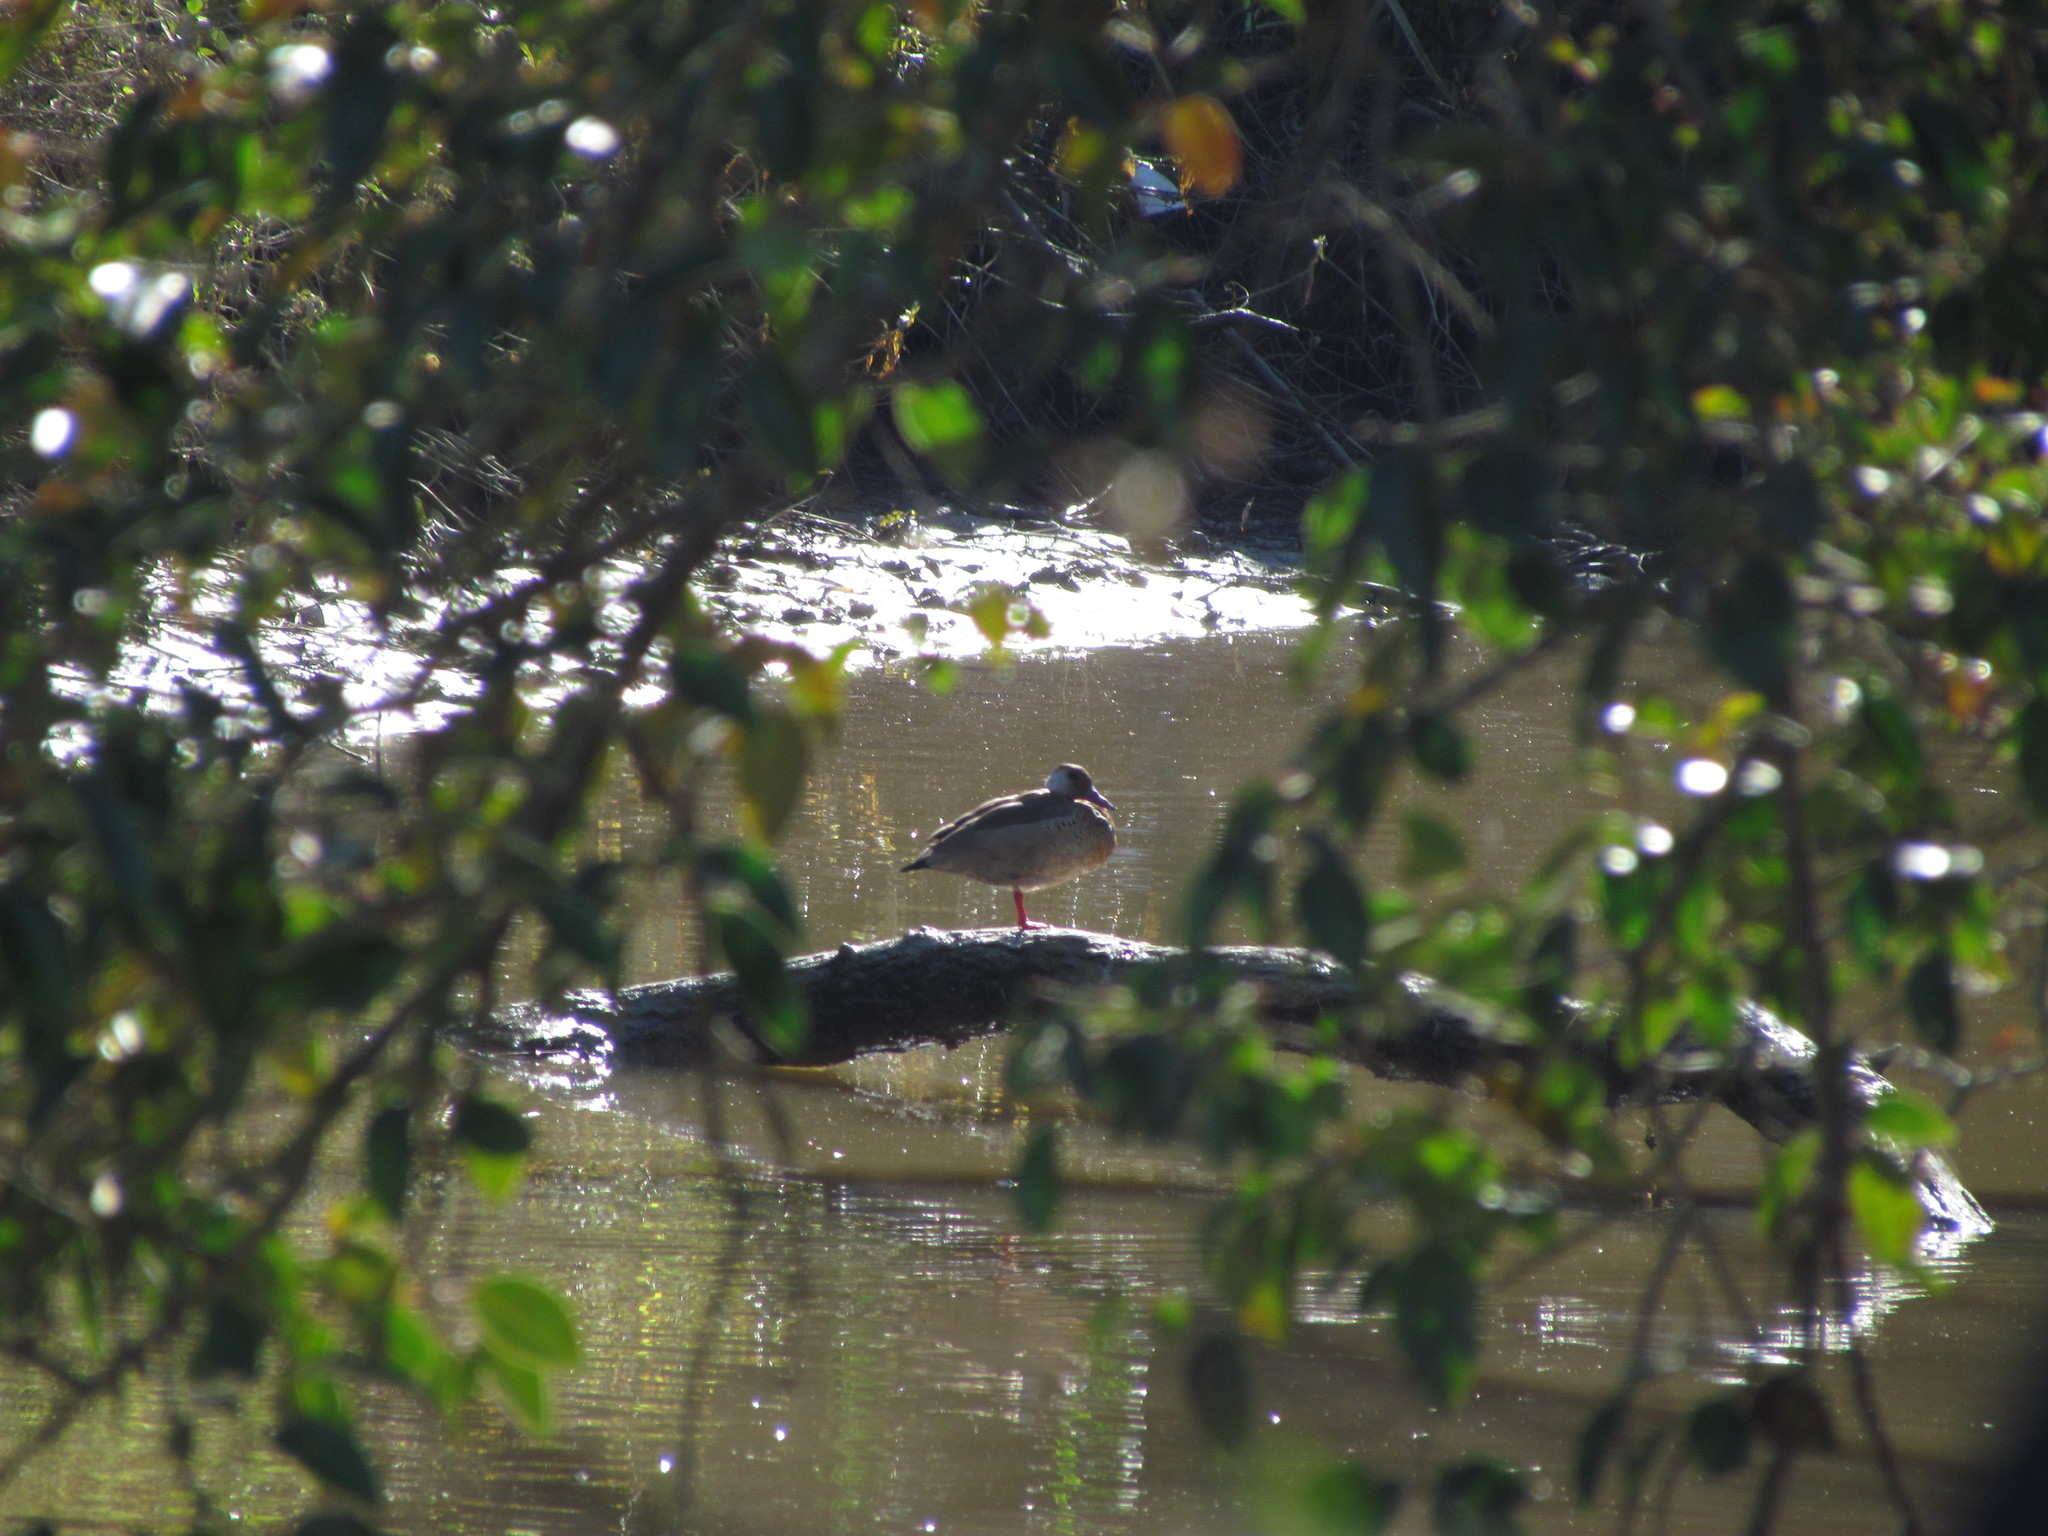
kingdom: Animalia
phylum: Chordata
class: Aves
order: Anseriformes
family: Anatidae
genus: Amazonetta
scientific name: Amazonetta brasiliensis
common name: Brazilian teal
